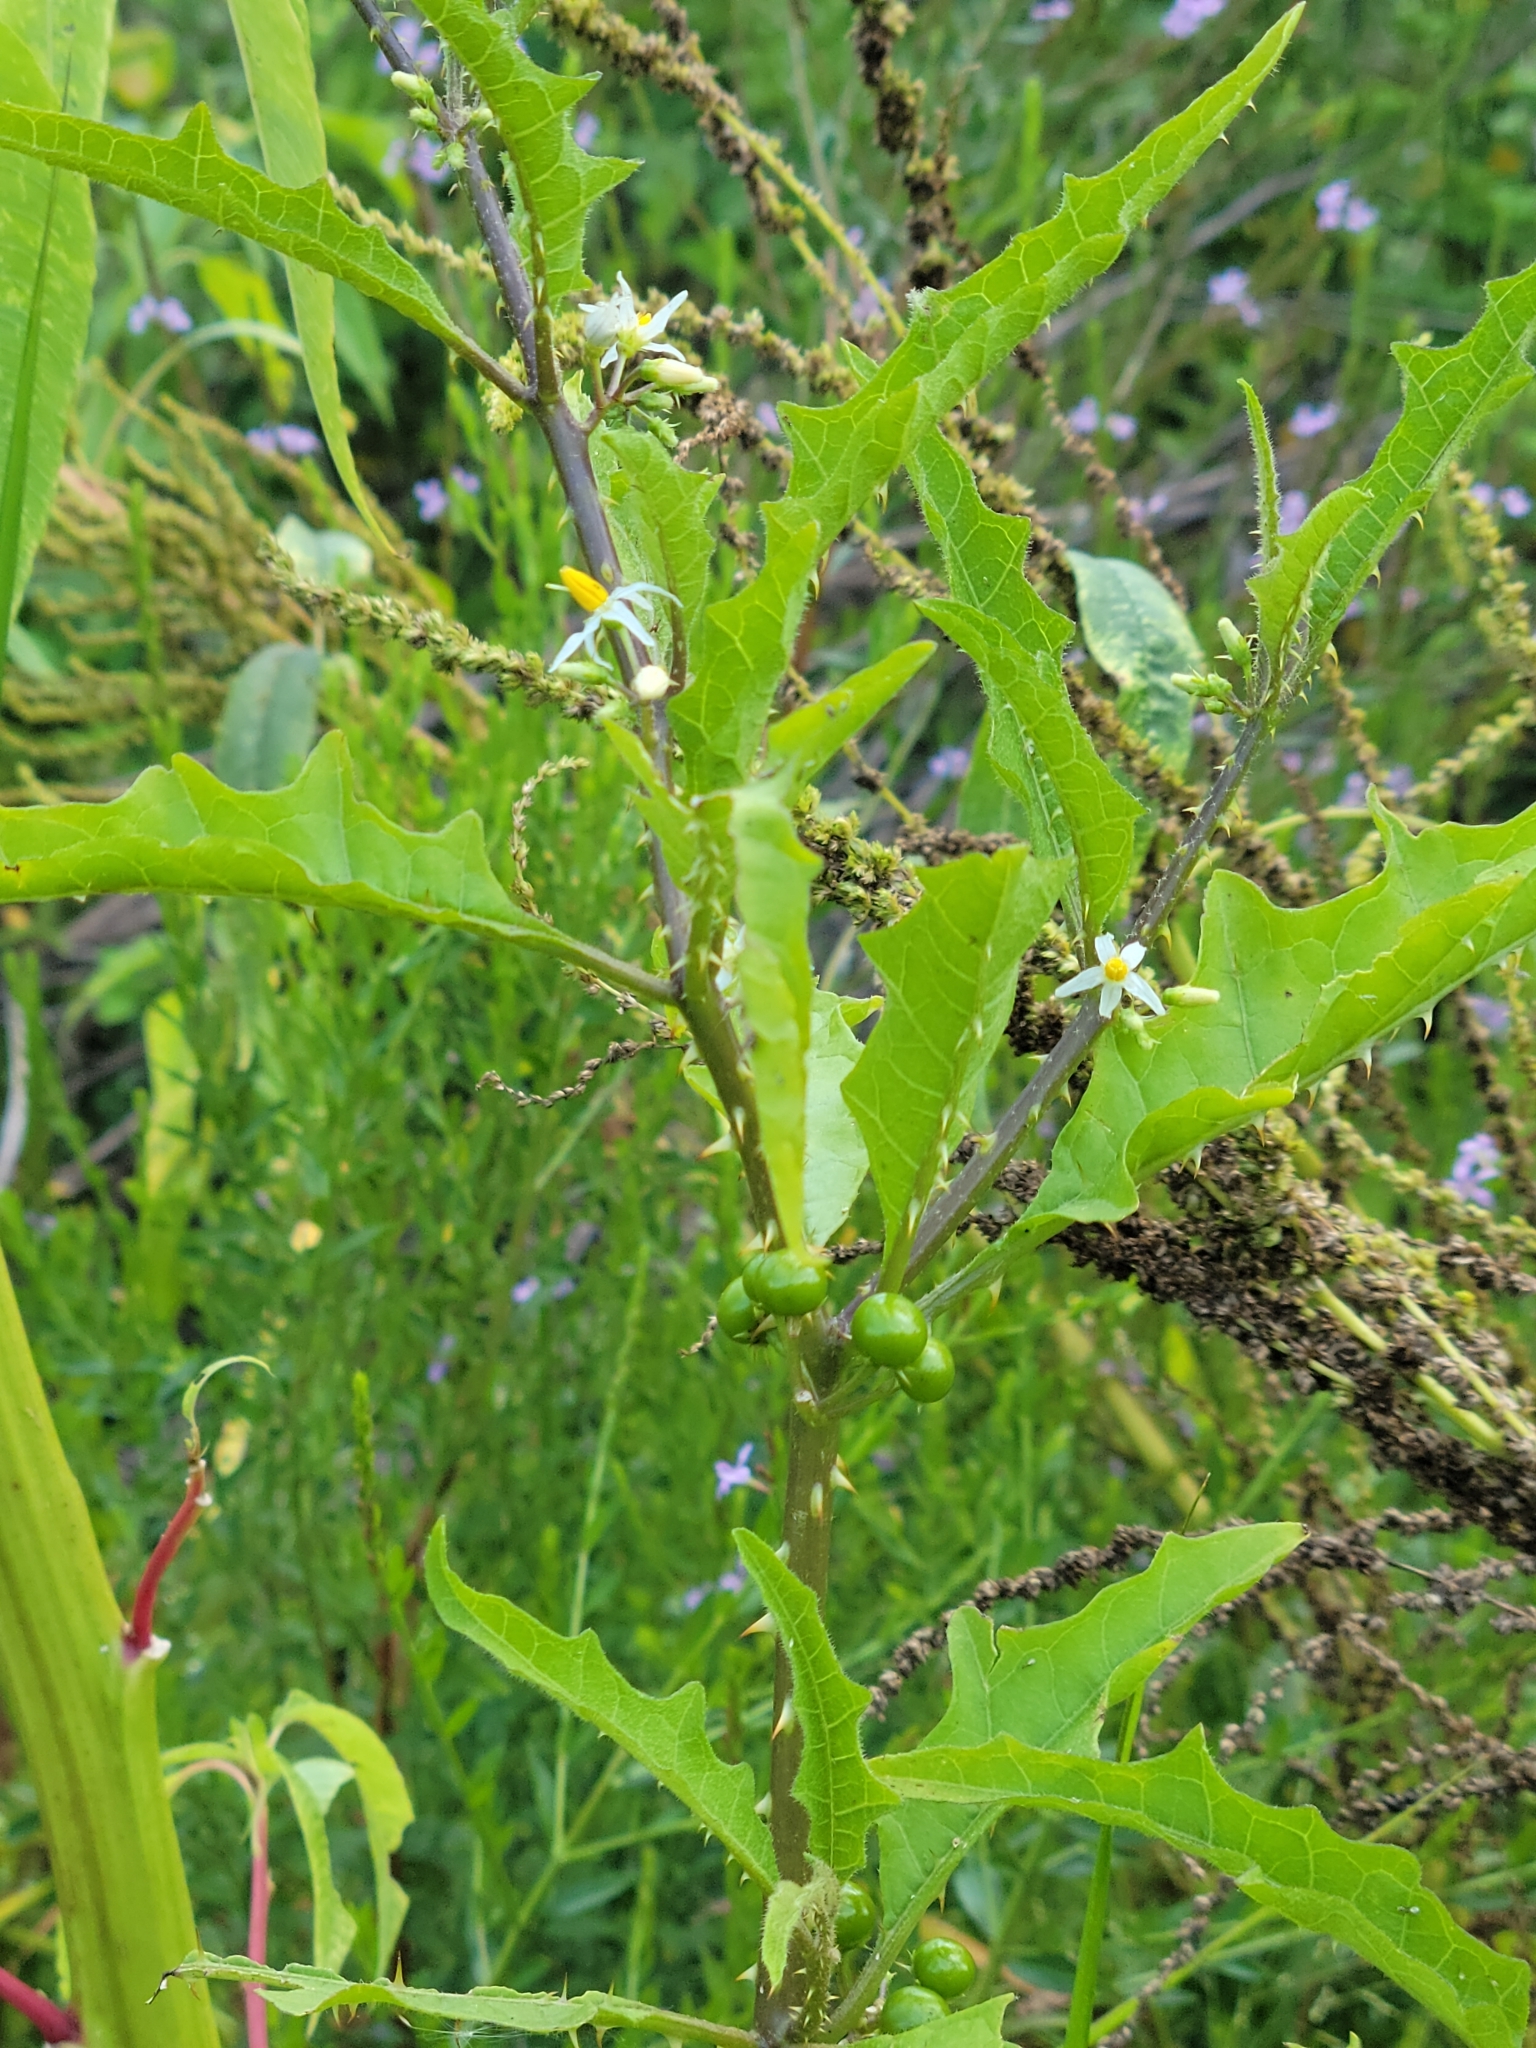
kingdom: Plantae
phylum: Tracheophyta
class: Magnoliopsida
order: Solanales
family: Solanaceae
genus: Solanum
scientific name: Solanum tampicense
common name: Scrambling nightshade
